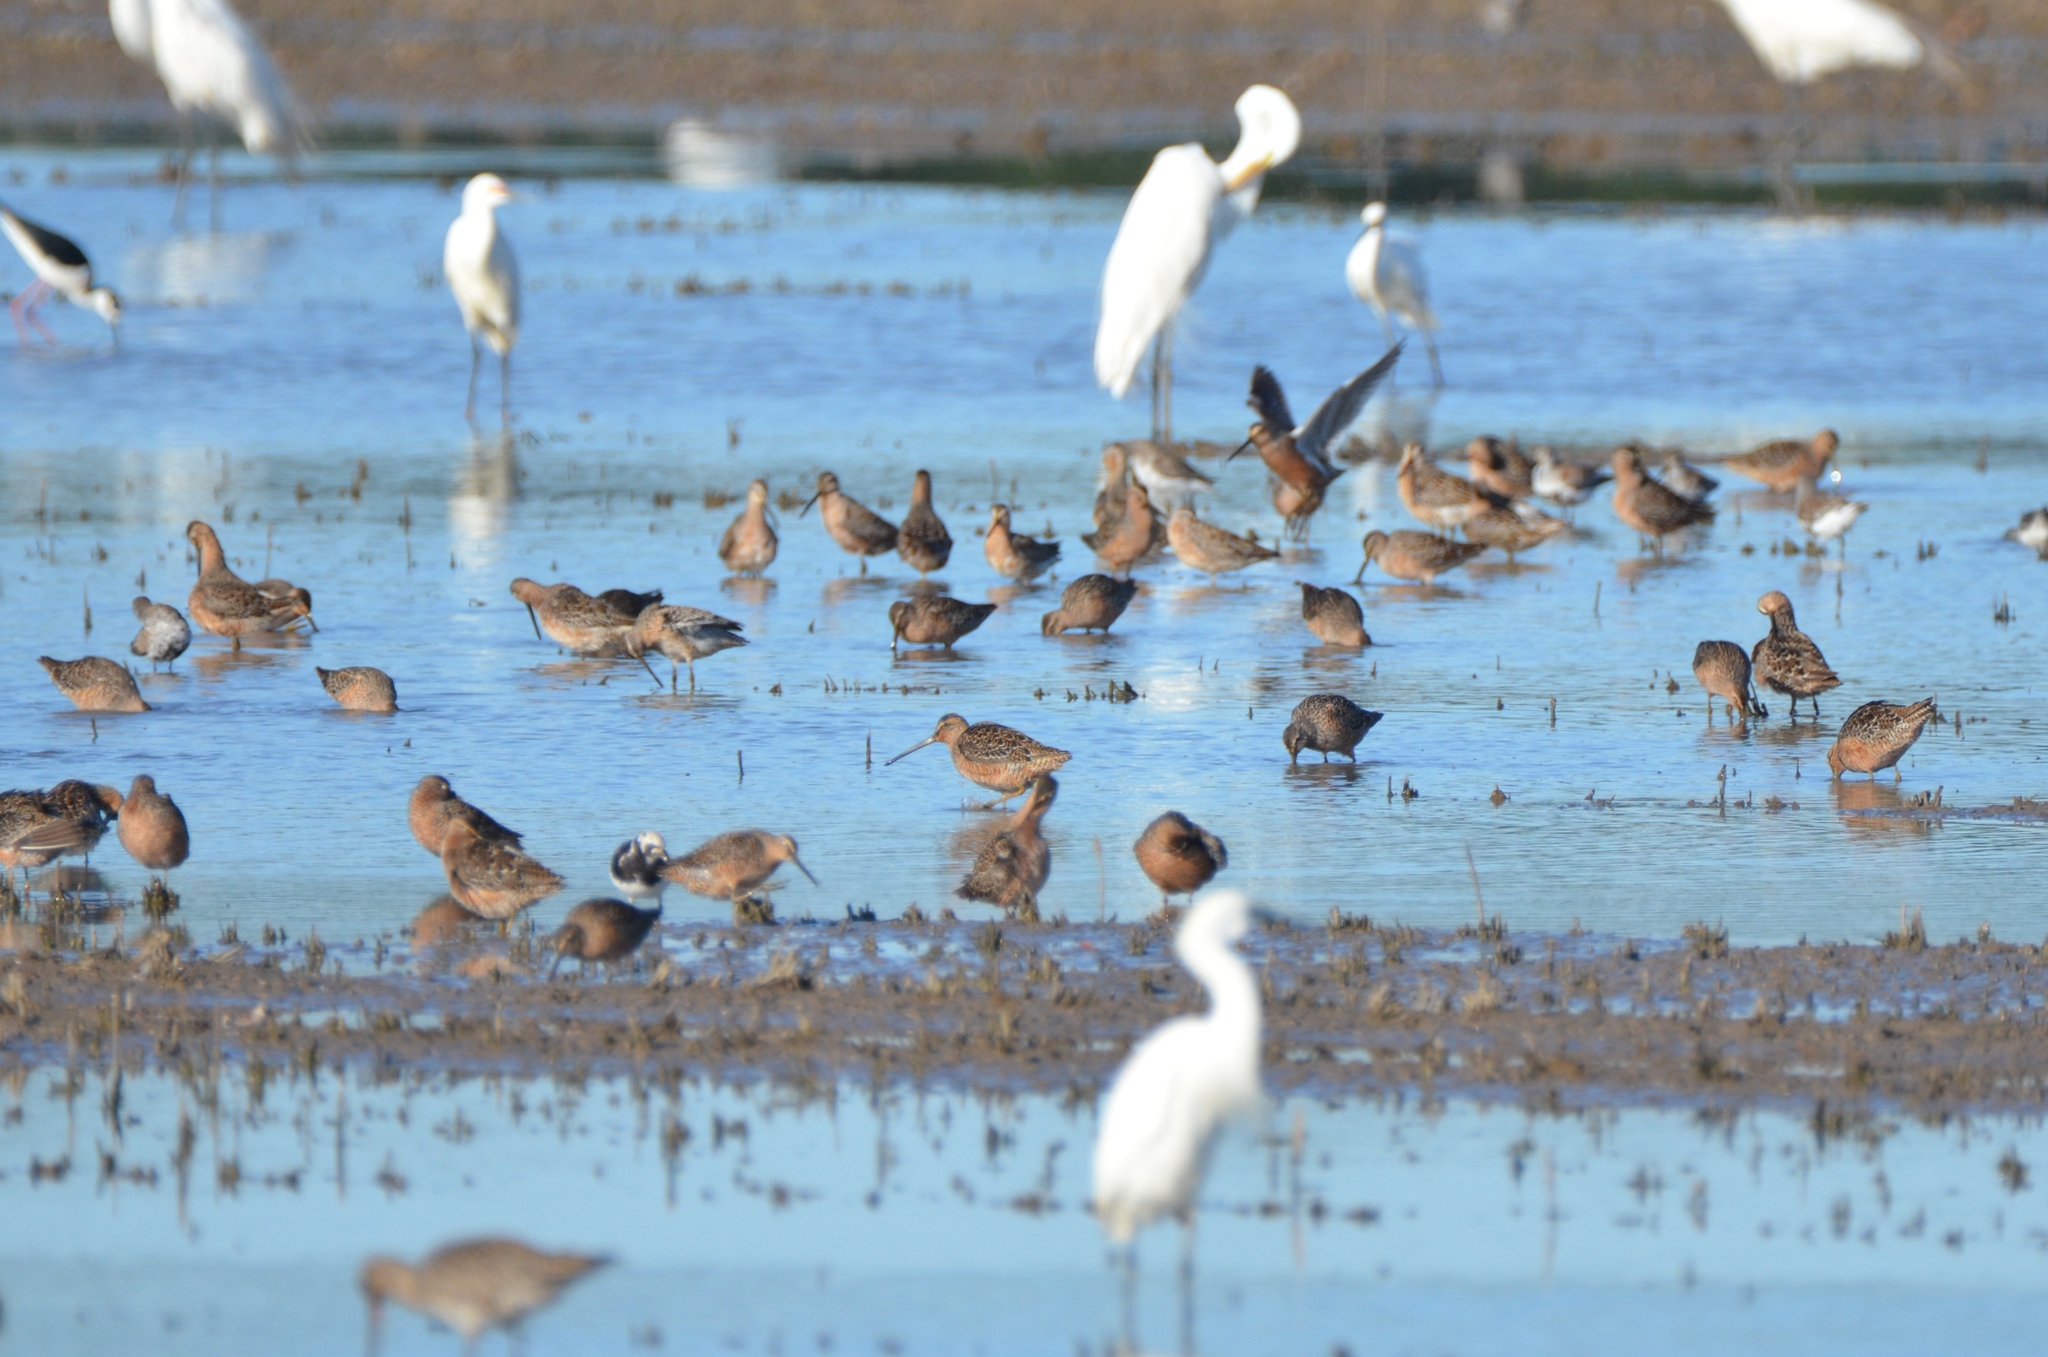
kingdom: Animalia
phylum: Chordata
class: Aves
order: Charadriiformes
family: Scolopacidae
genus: Limnodromus
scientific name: Limnodromus scolopaceus
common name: Long-billed dowitcher
